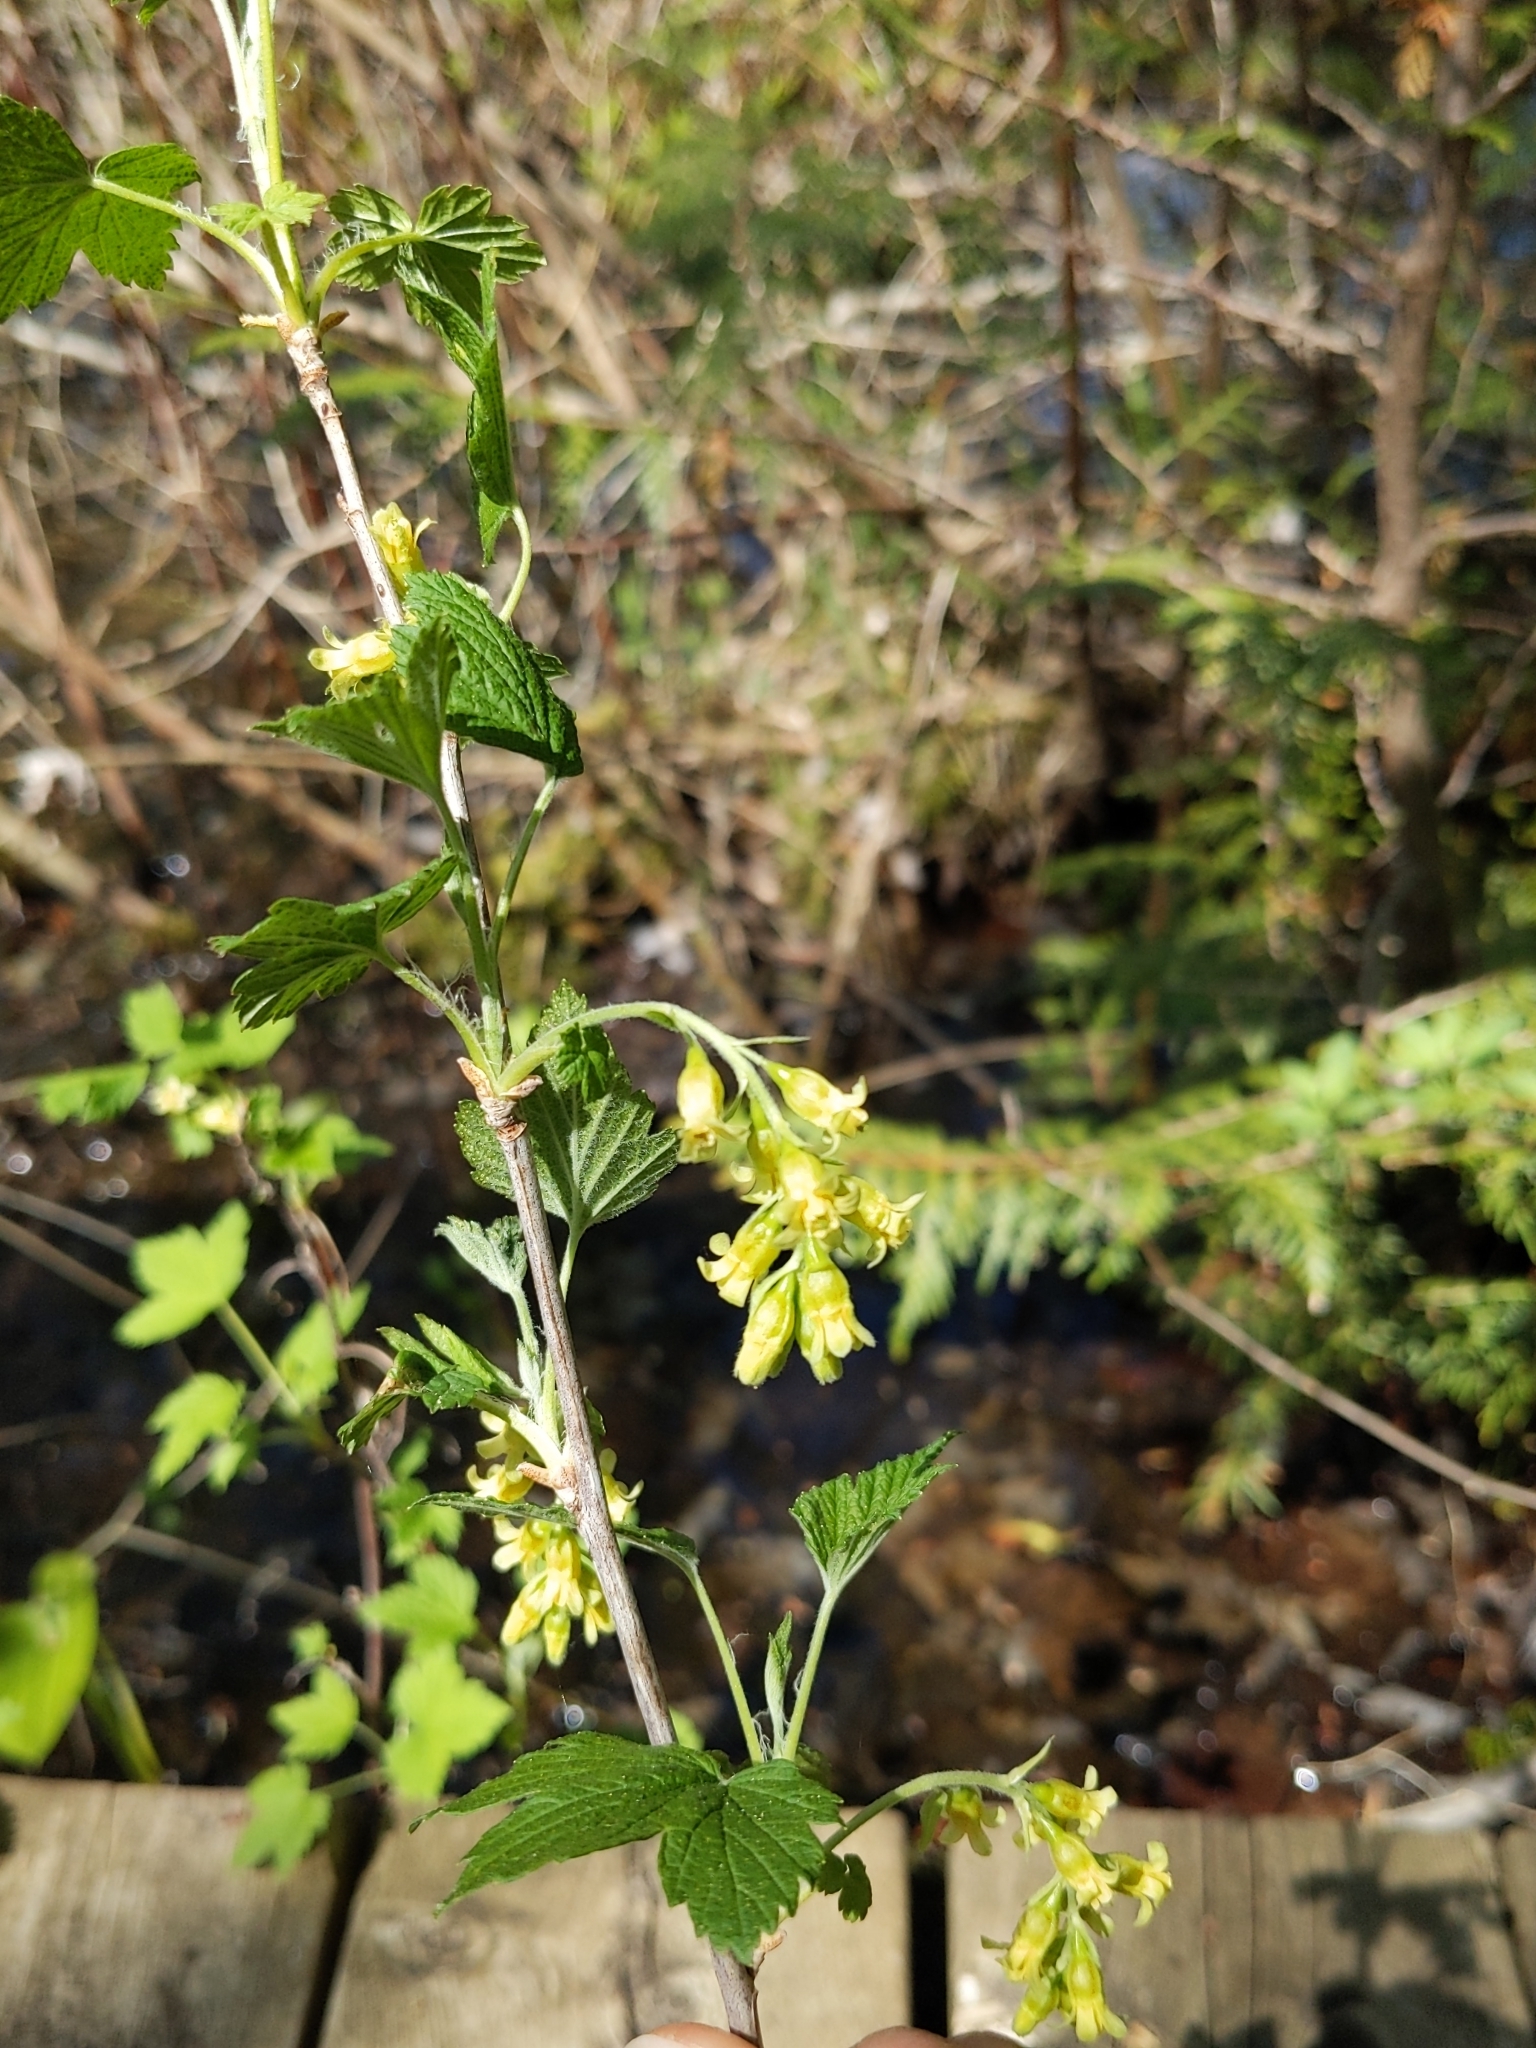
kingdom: Plantae
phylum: Tracheophyta
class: Magnoliopsida
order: Saxifragales
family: Grossulariaceae
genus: Ribes
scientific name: Ribes americanum
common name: American black currant
